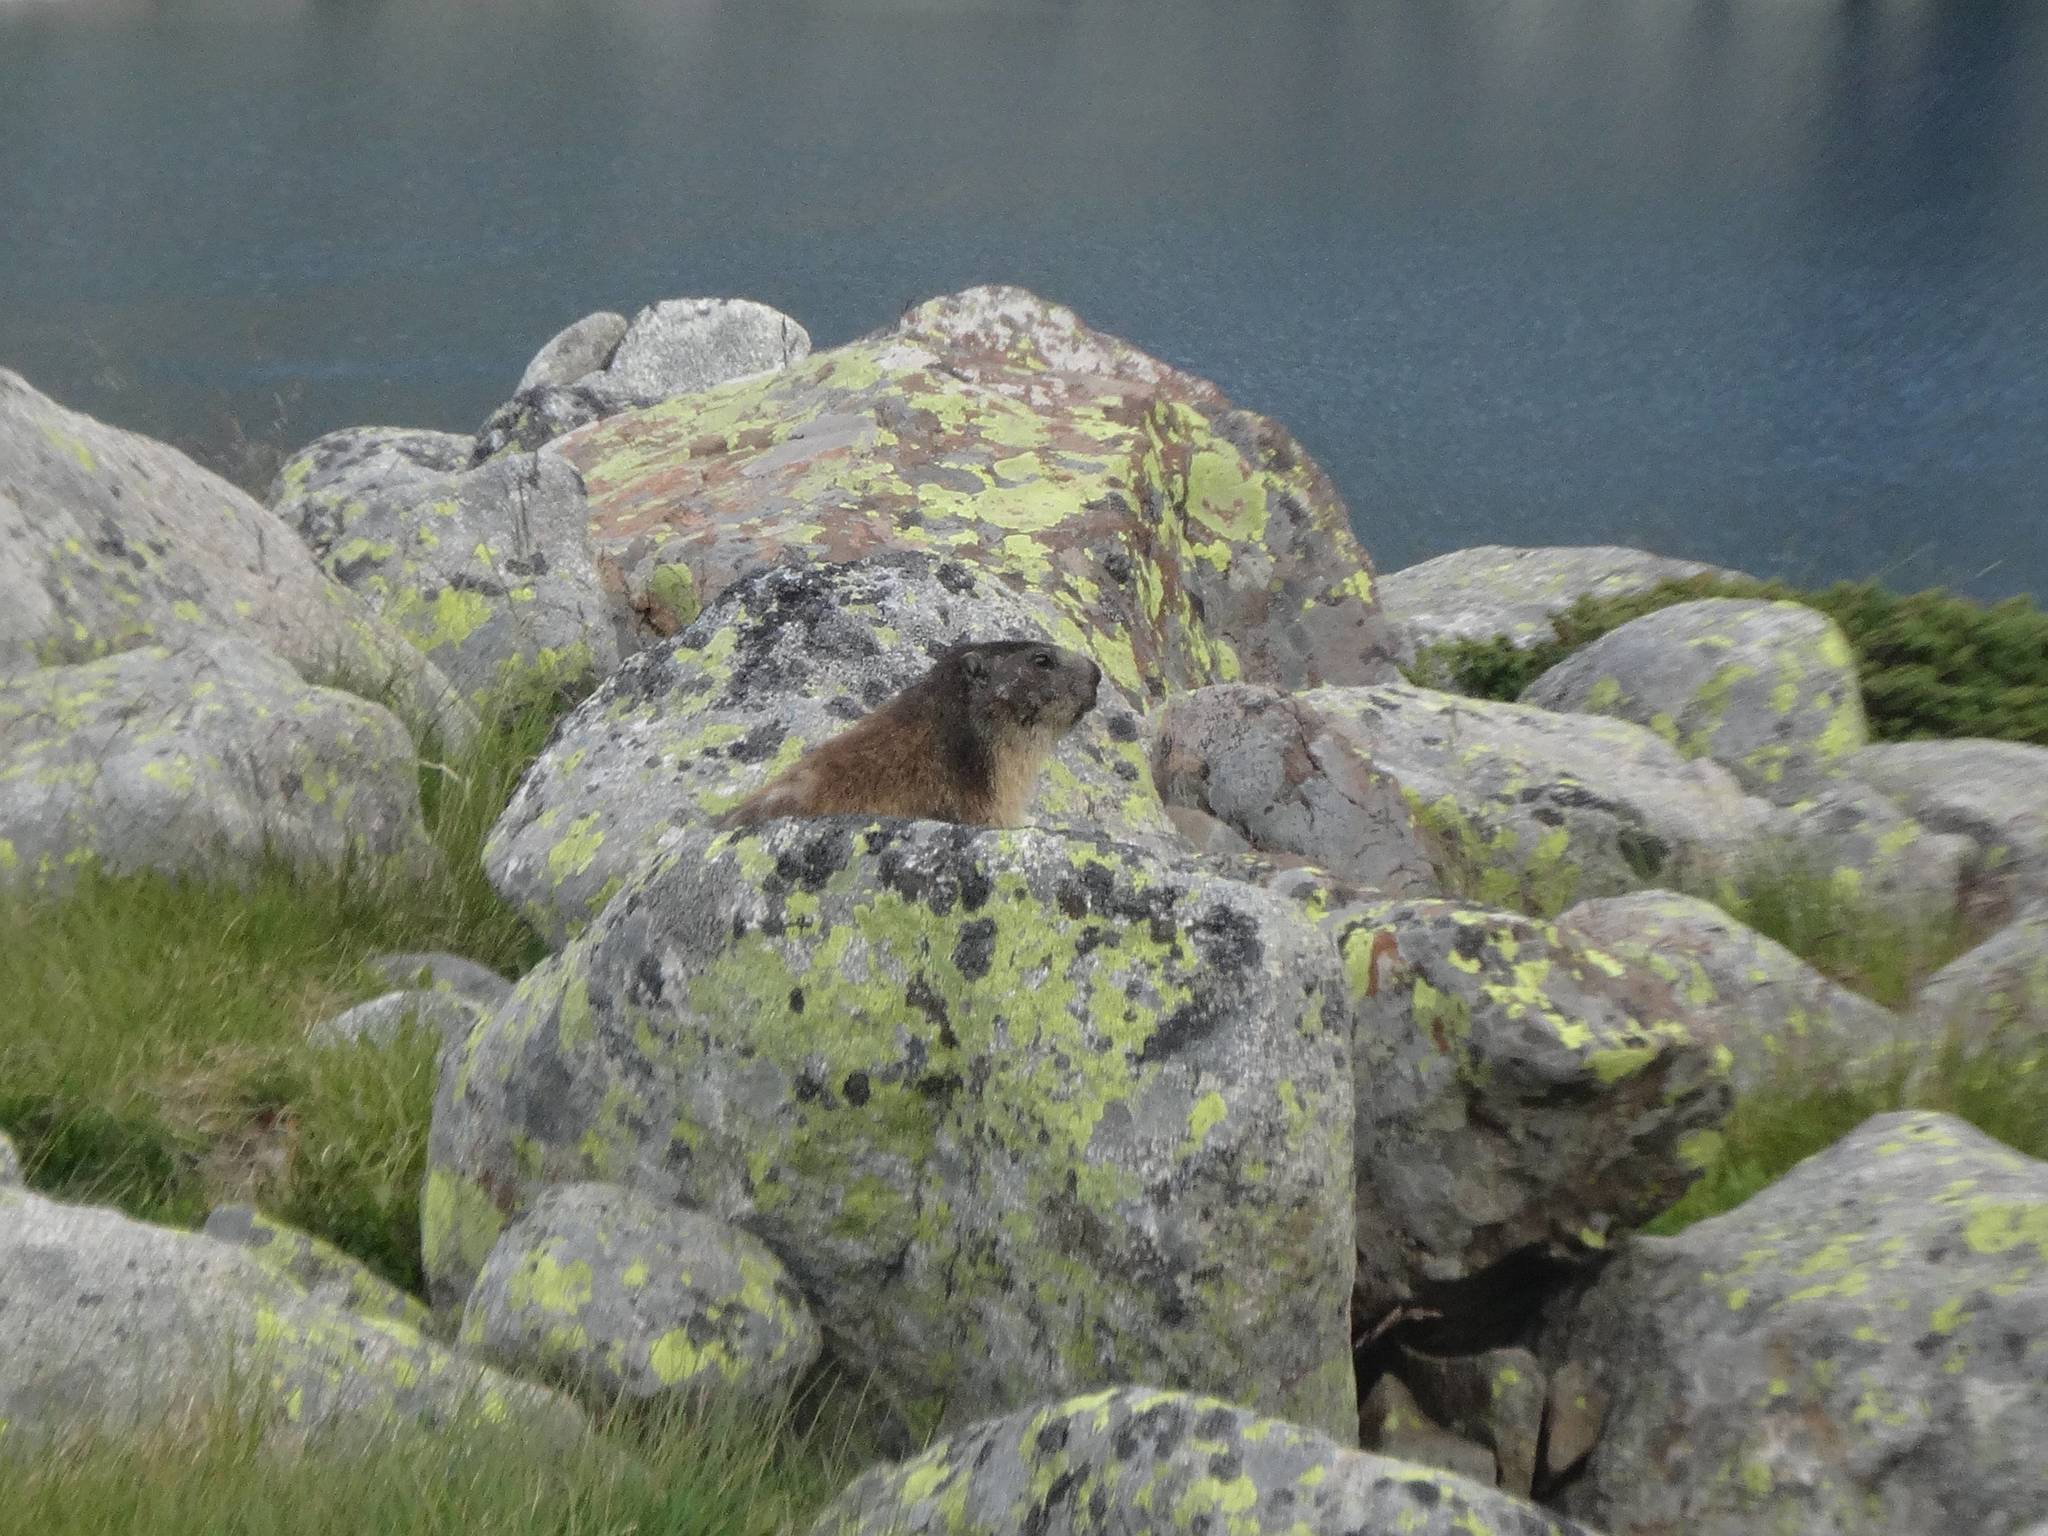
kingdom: Animalia
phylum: Chordata
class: Mammalia
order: Rodentia
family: Sciuridae
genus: Marmota
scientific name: Marmota marmota
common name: Alpine marmot
